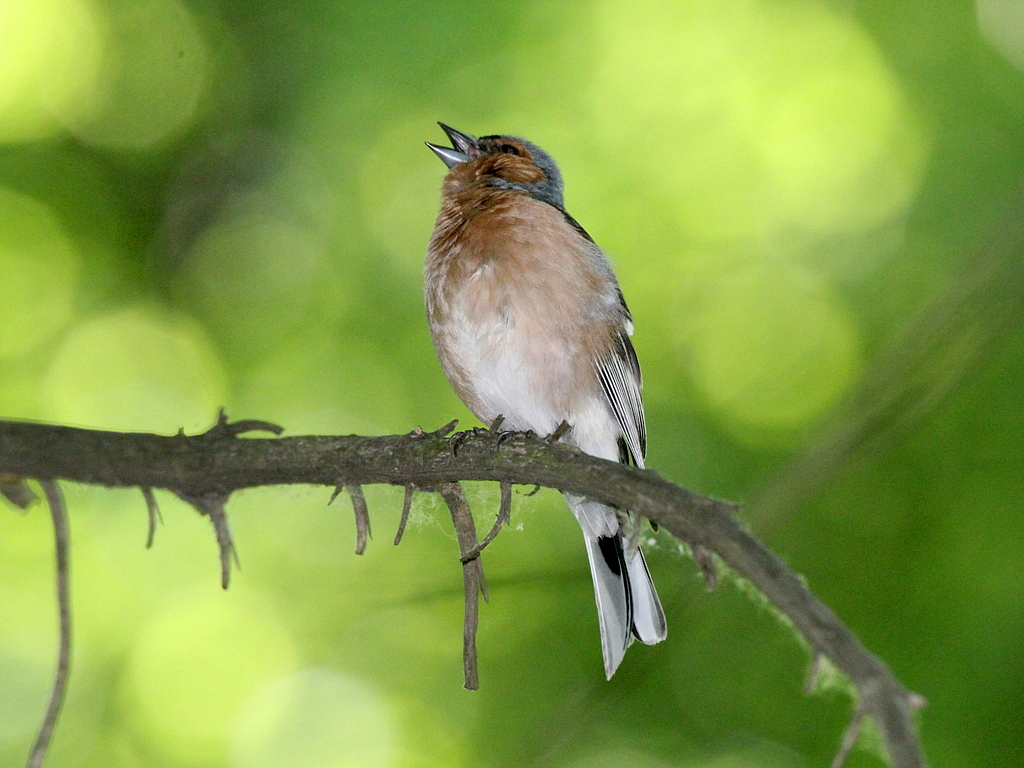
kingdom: Animalia
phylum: Chordata
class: Aves
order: Passeriformes
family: Fringillidae
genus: Fringilla
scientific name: Fringilla coelebs
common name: Common chaffinch
